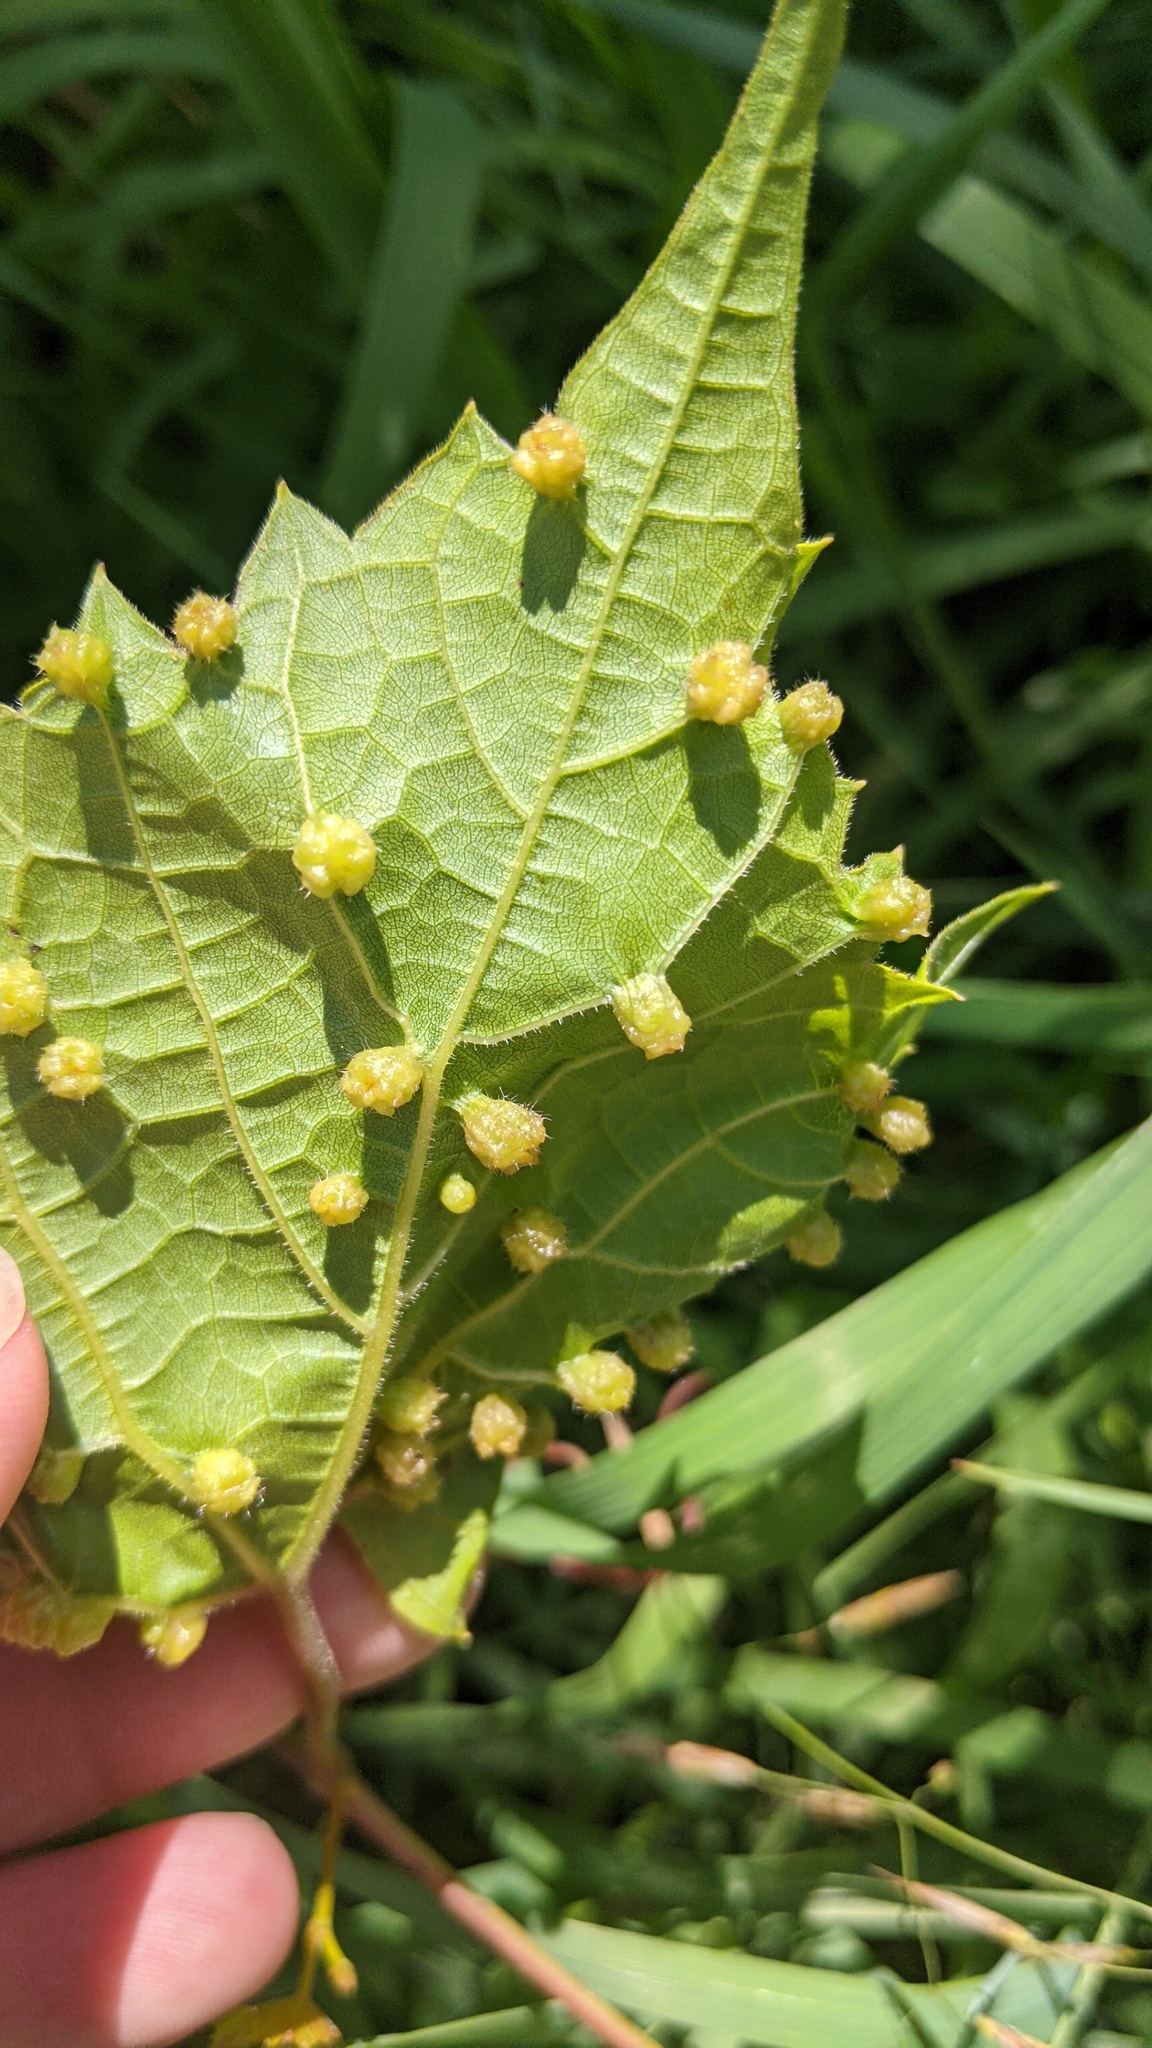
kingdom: Animalia
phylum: Arthropoda
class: Insecta
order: Hemiptera
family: Phylloxeridae
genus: Daktulosphaira
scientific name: Daktulosphaira vitifoliae
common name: Grape phylloxera
